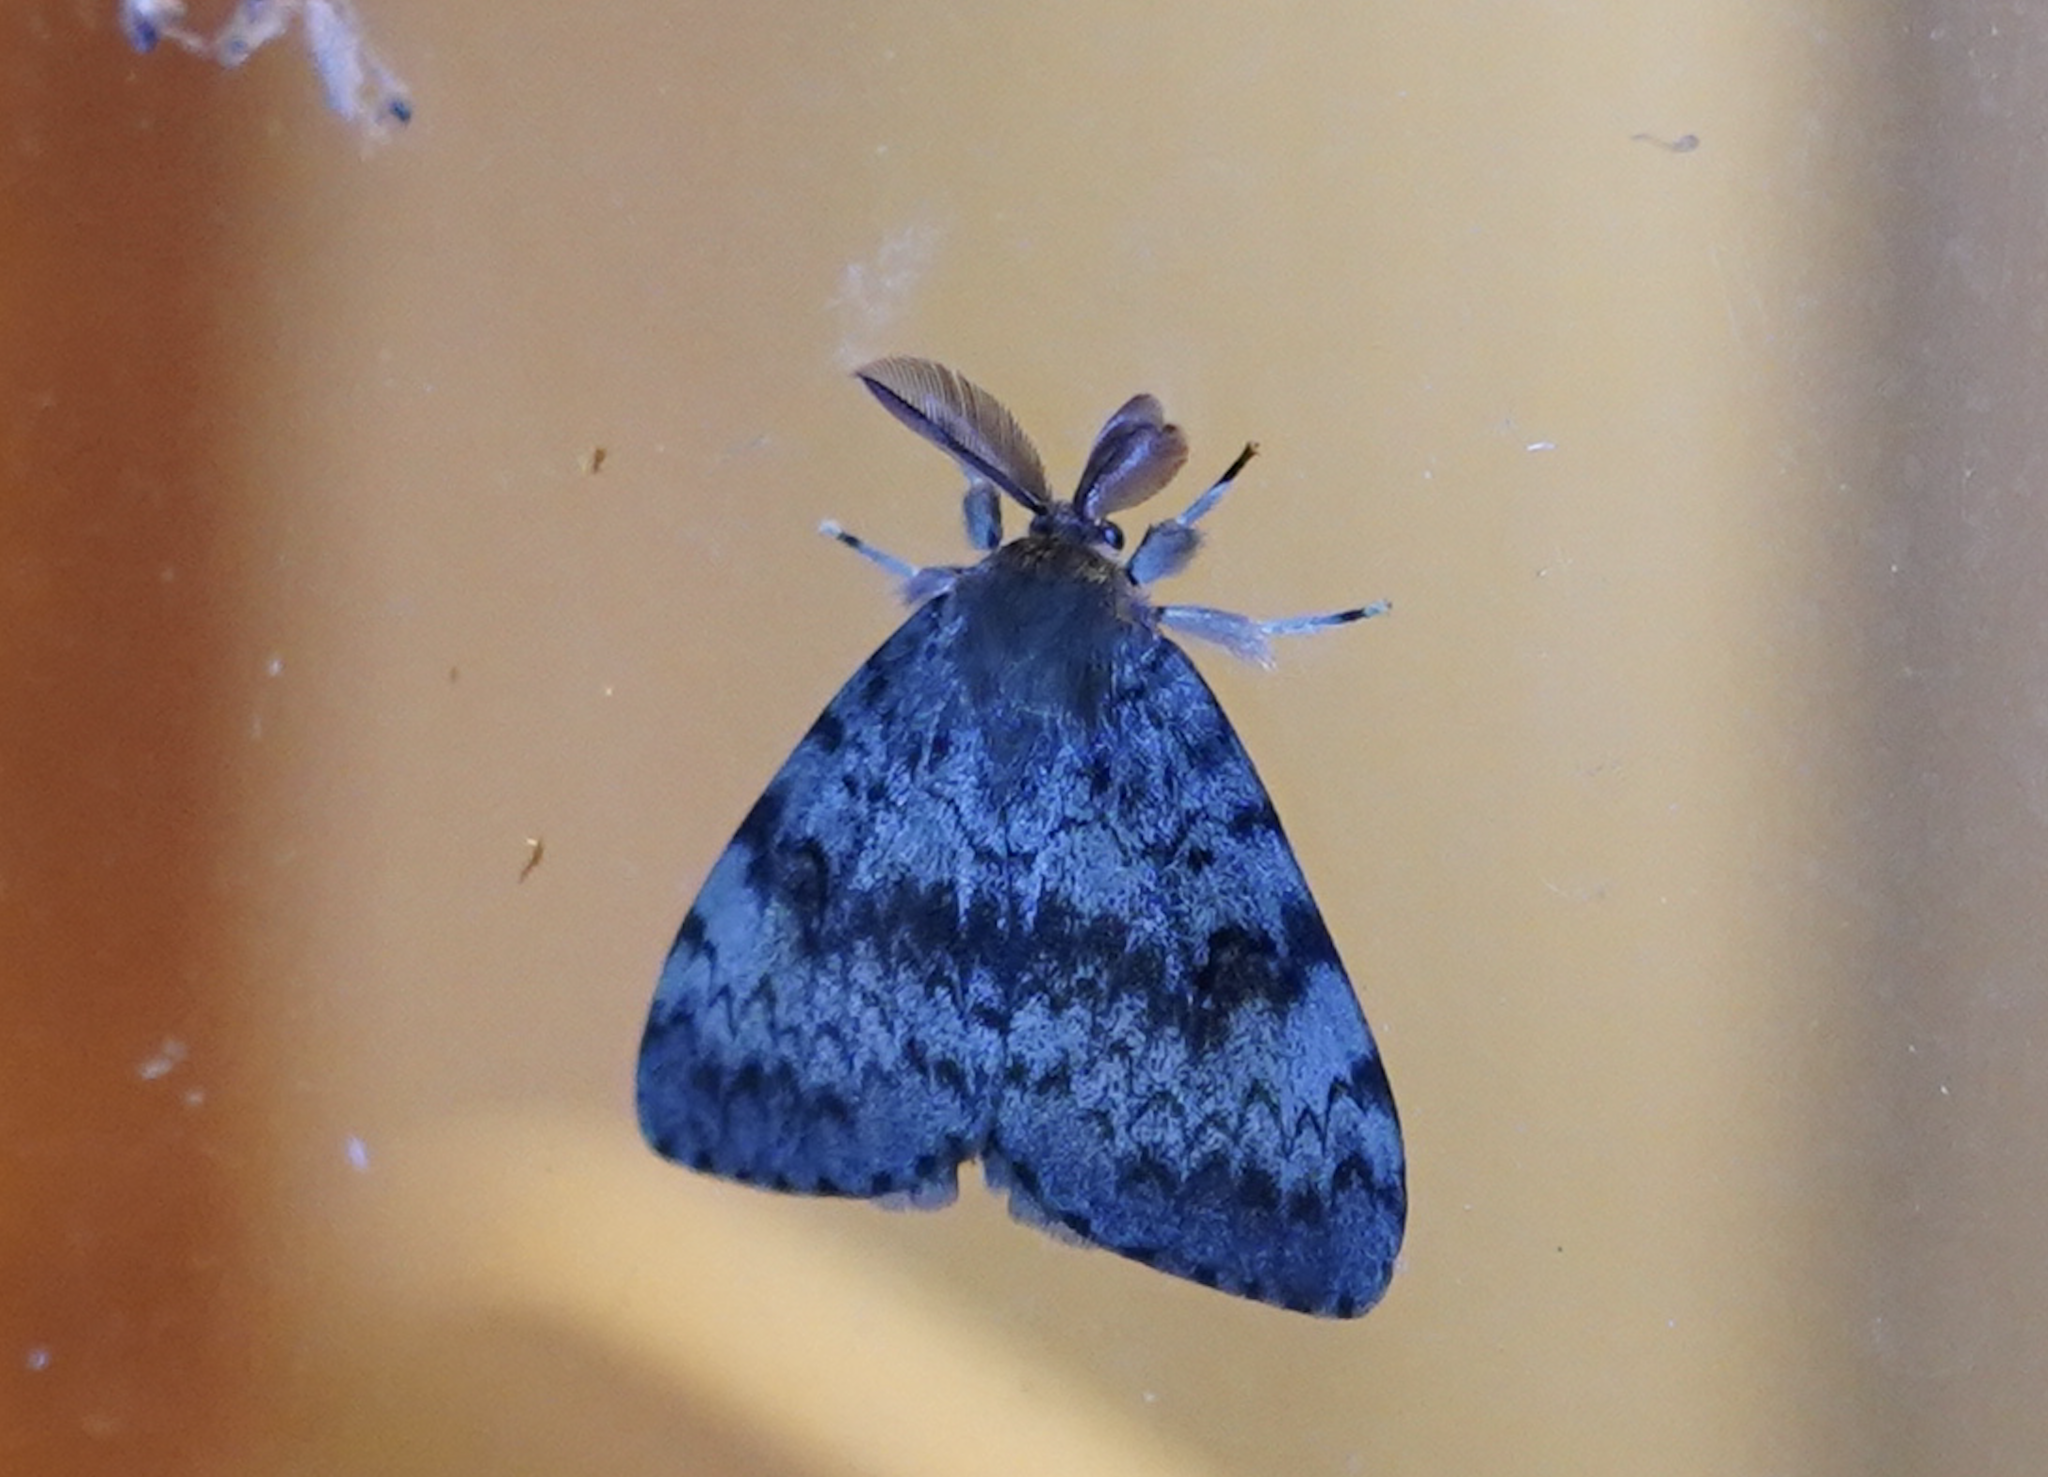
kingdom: Animalia
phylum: Arthropoda
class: Insecta
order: Lepidoptera
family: Erebidae
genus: Lymantria
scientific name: Lymantria dispar
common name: Gypsy moth
